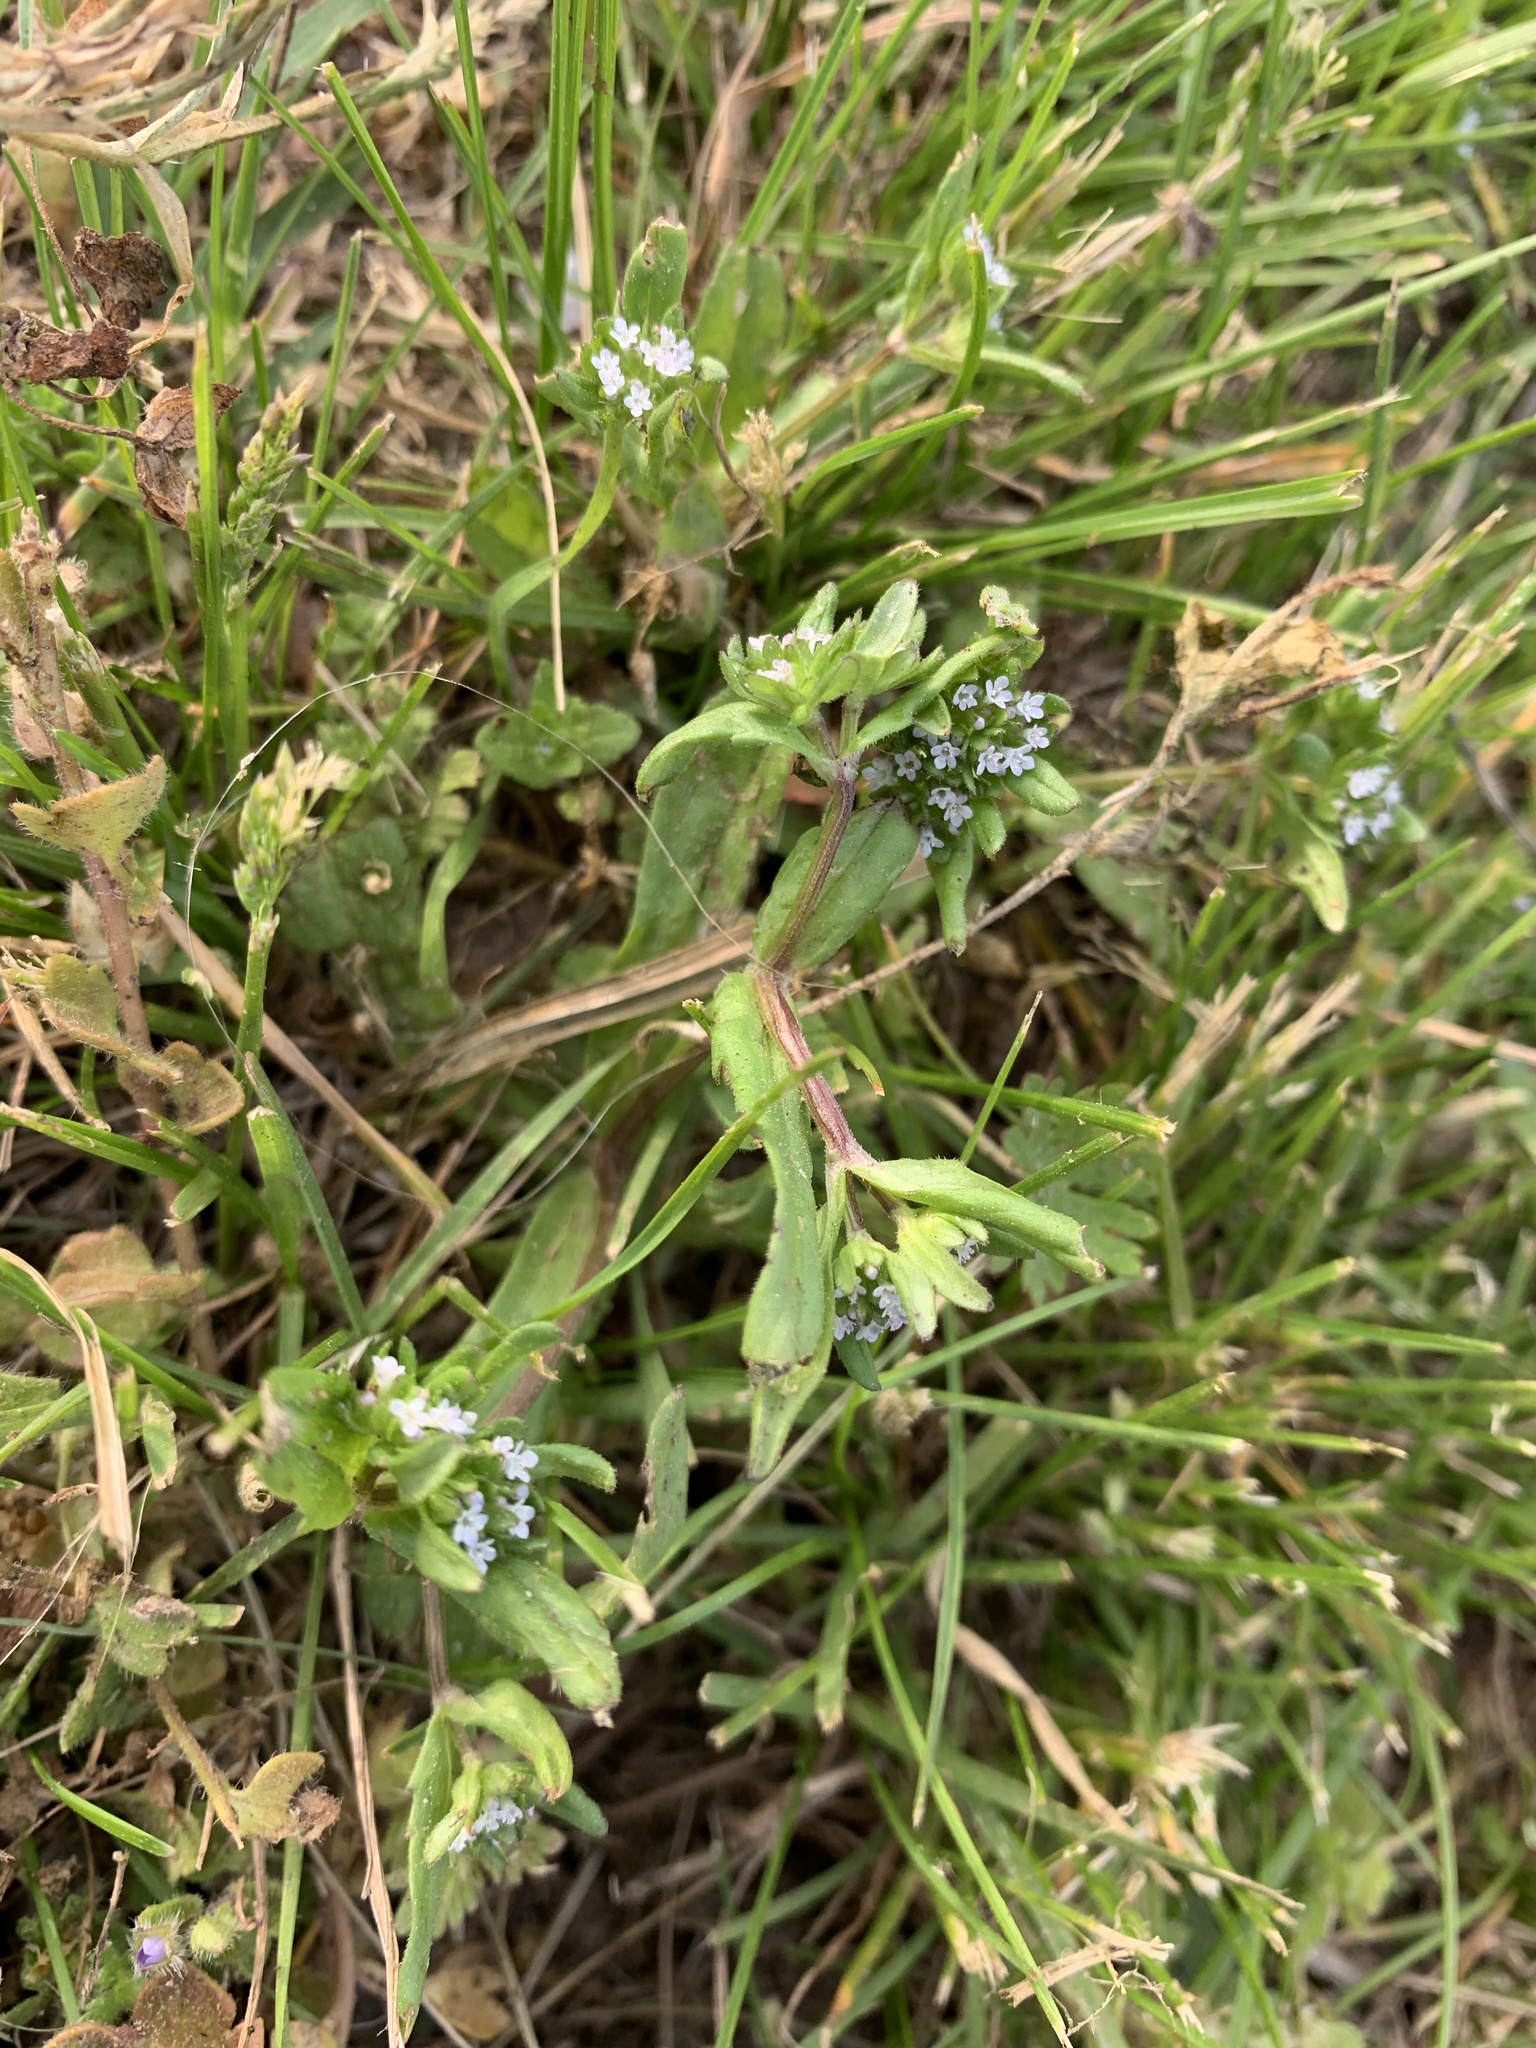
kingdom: Plantae
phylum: Tracheophyta
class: Magnoliopsida
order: Dipsacales
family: Caprifoliaceae
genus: Valerianella
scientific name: Valerianella locusta
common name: Common cornsalad
